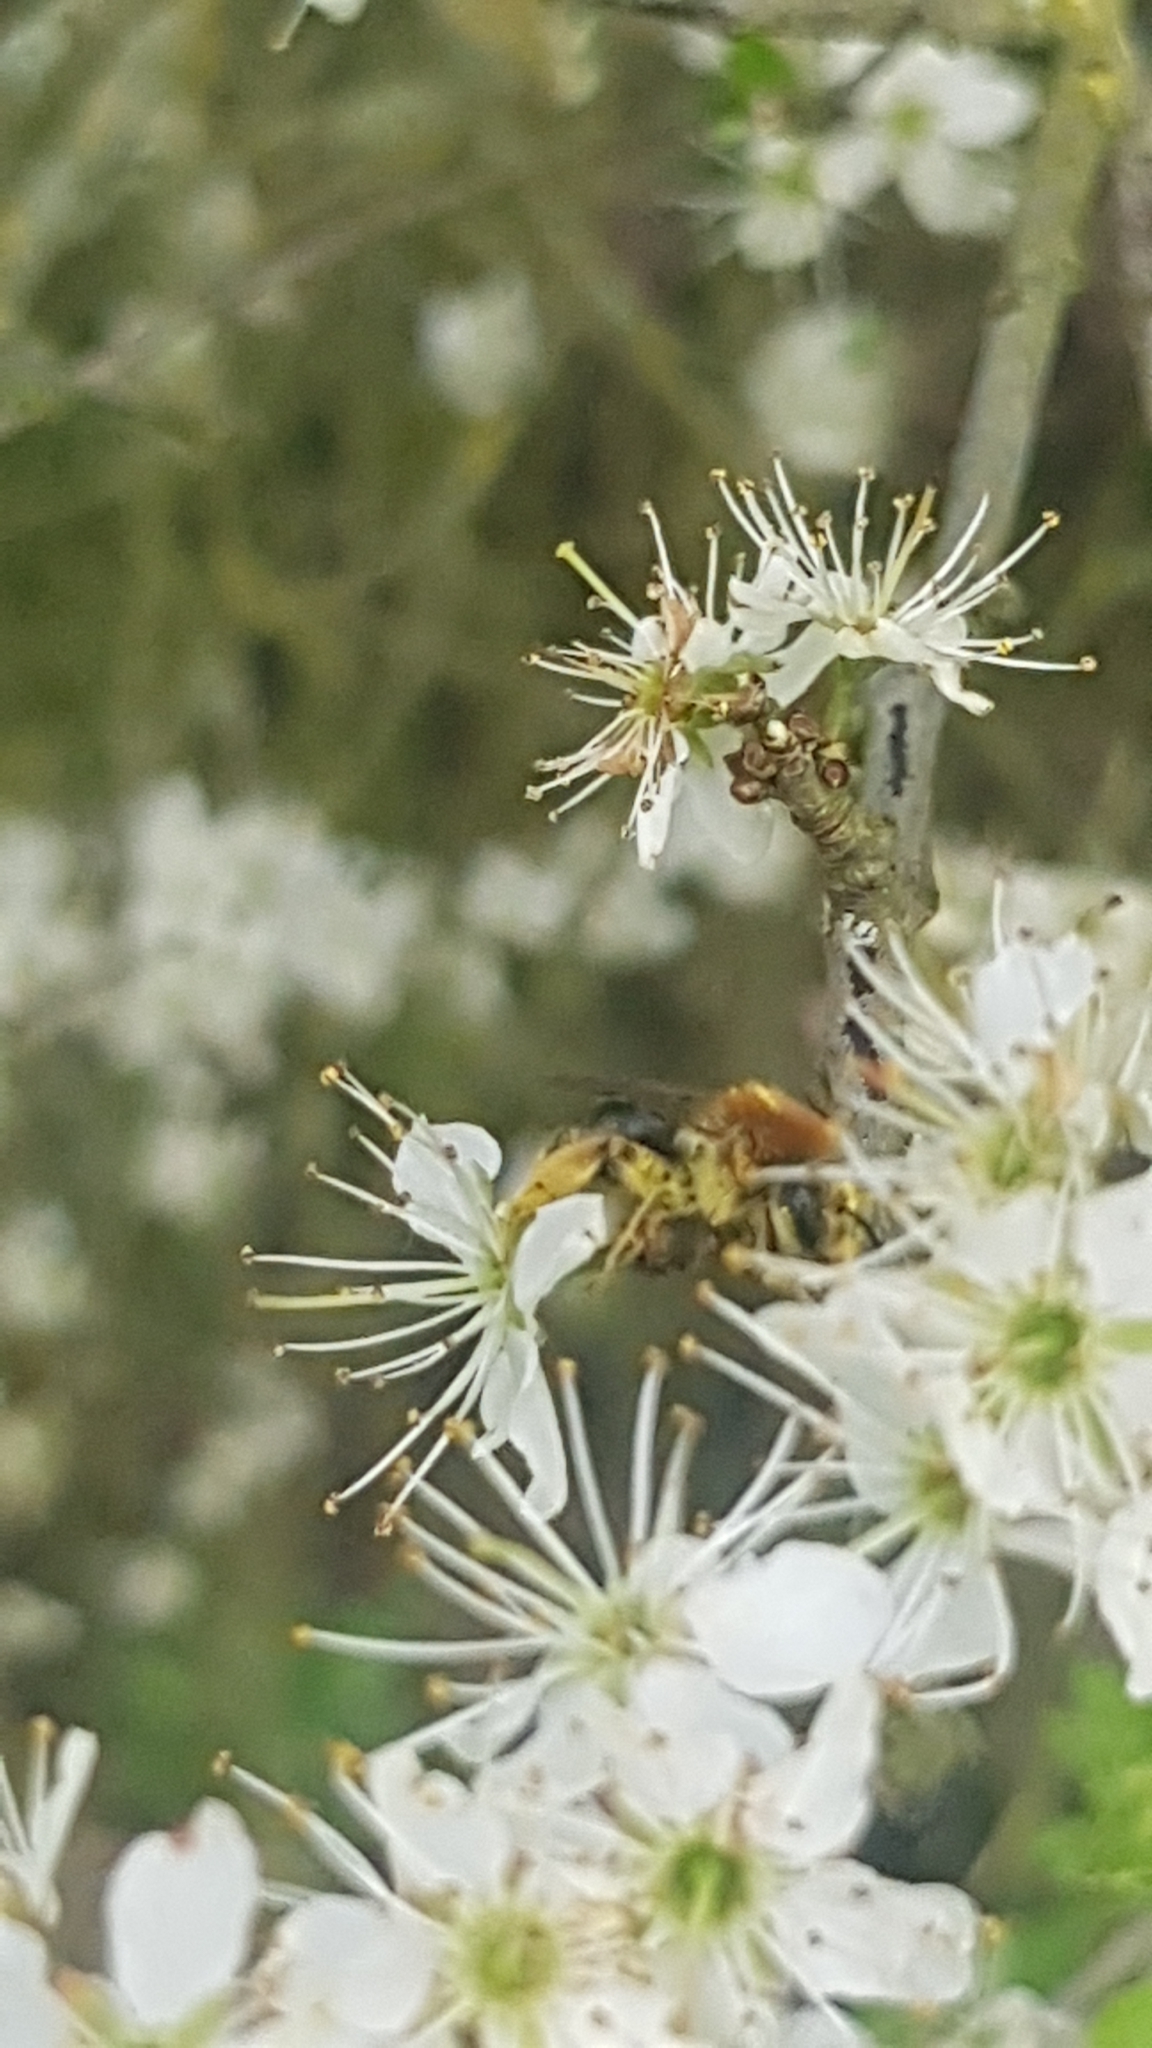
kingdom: Animalia
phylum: Arthropoda
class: Insecta
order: Hymenoptera
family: Andrenidae
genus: Andrena
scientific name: Andrena haemorrhoa
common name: Early mining bee
